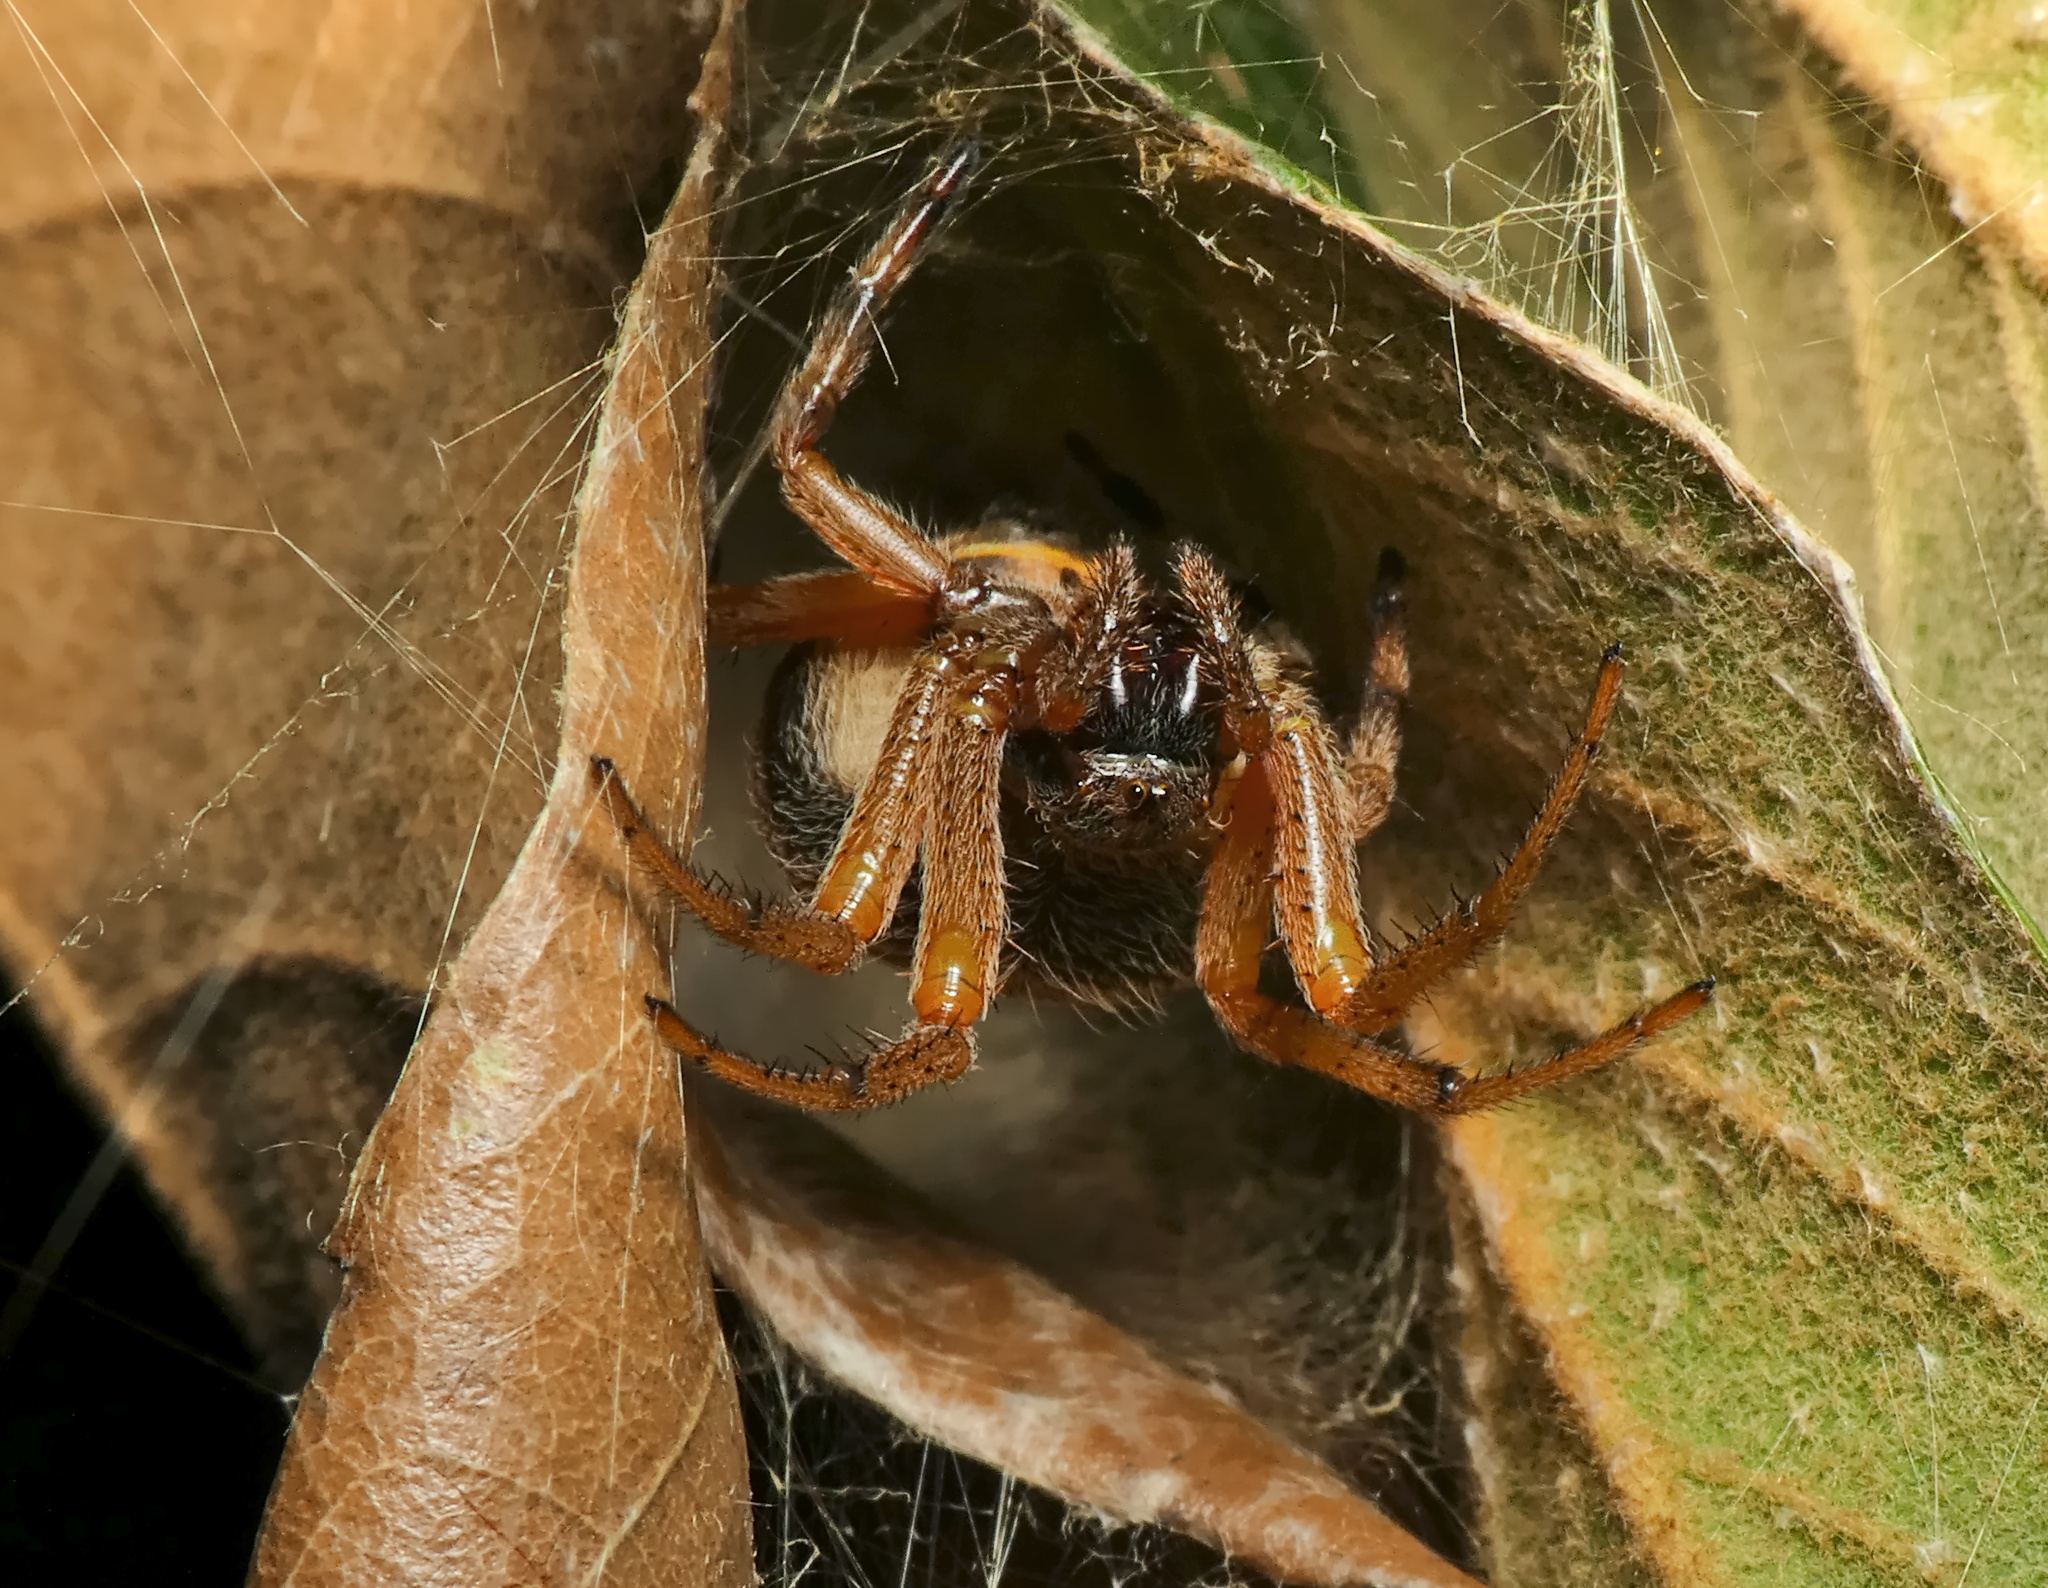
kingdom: Animalia
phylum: Arthropoda
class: Arachnida
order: Araneae
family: Araneidae
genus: Nephilingis
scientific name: Nephilingis cruentata
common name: African hermit spider
